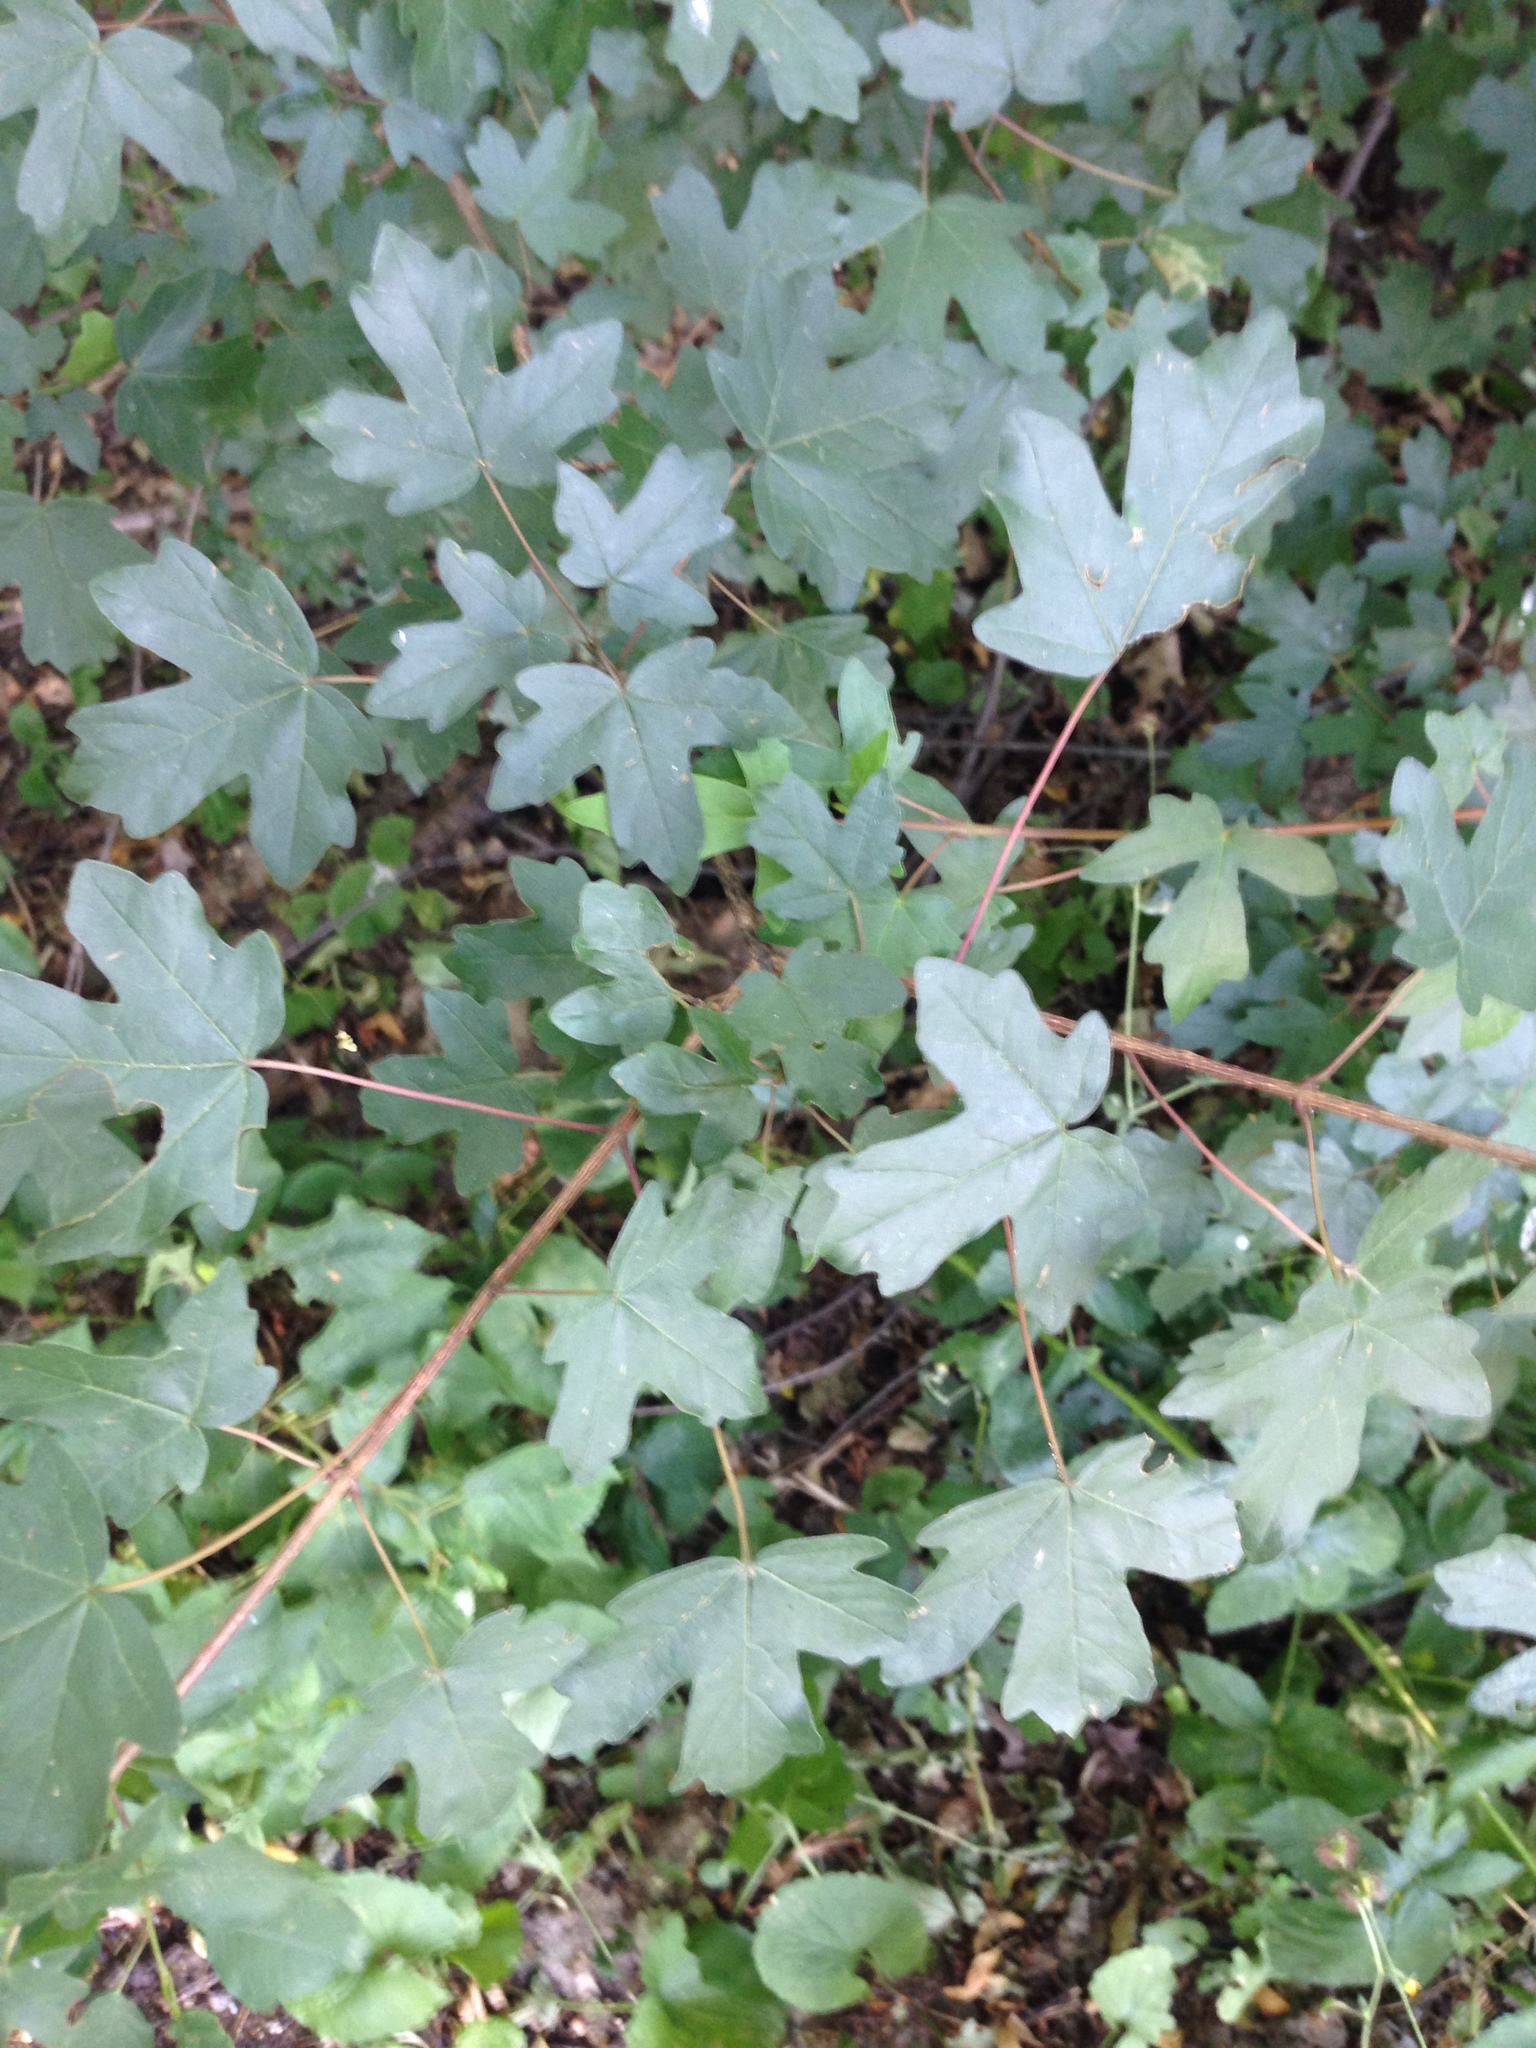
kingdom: Plantae
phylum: Tracheophyta
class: Magnoliopsida
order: Sapindales
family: Sapindaceae
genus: Acer
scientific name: Acer campestre
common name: Field maple
